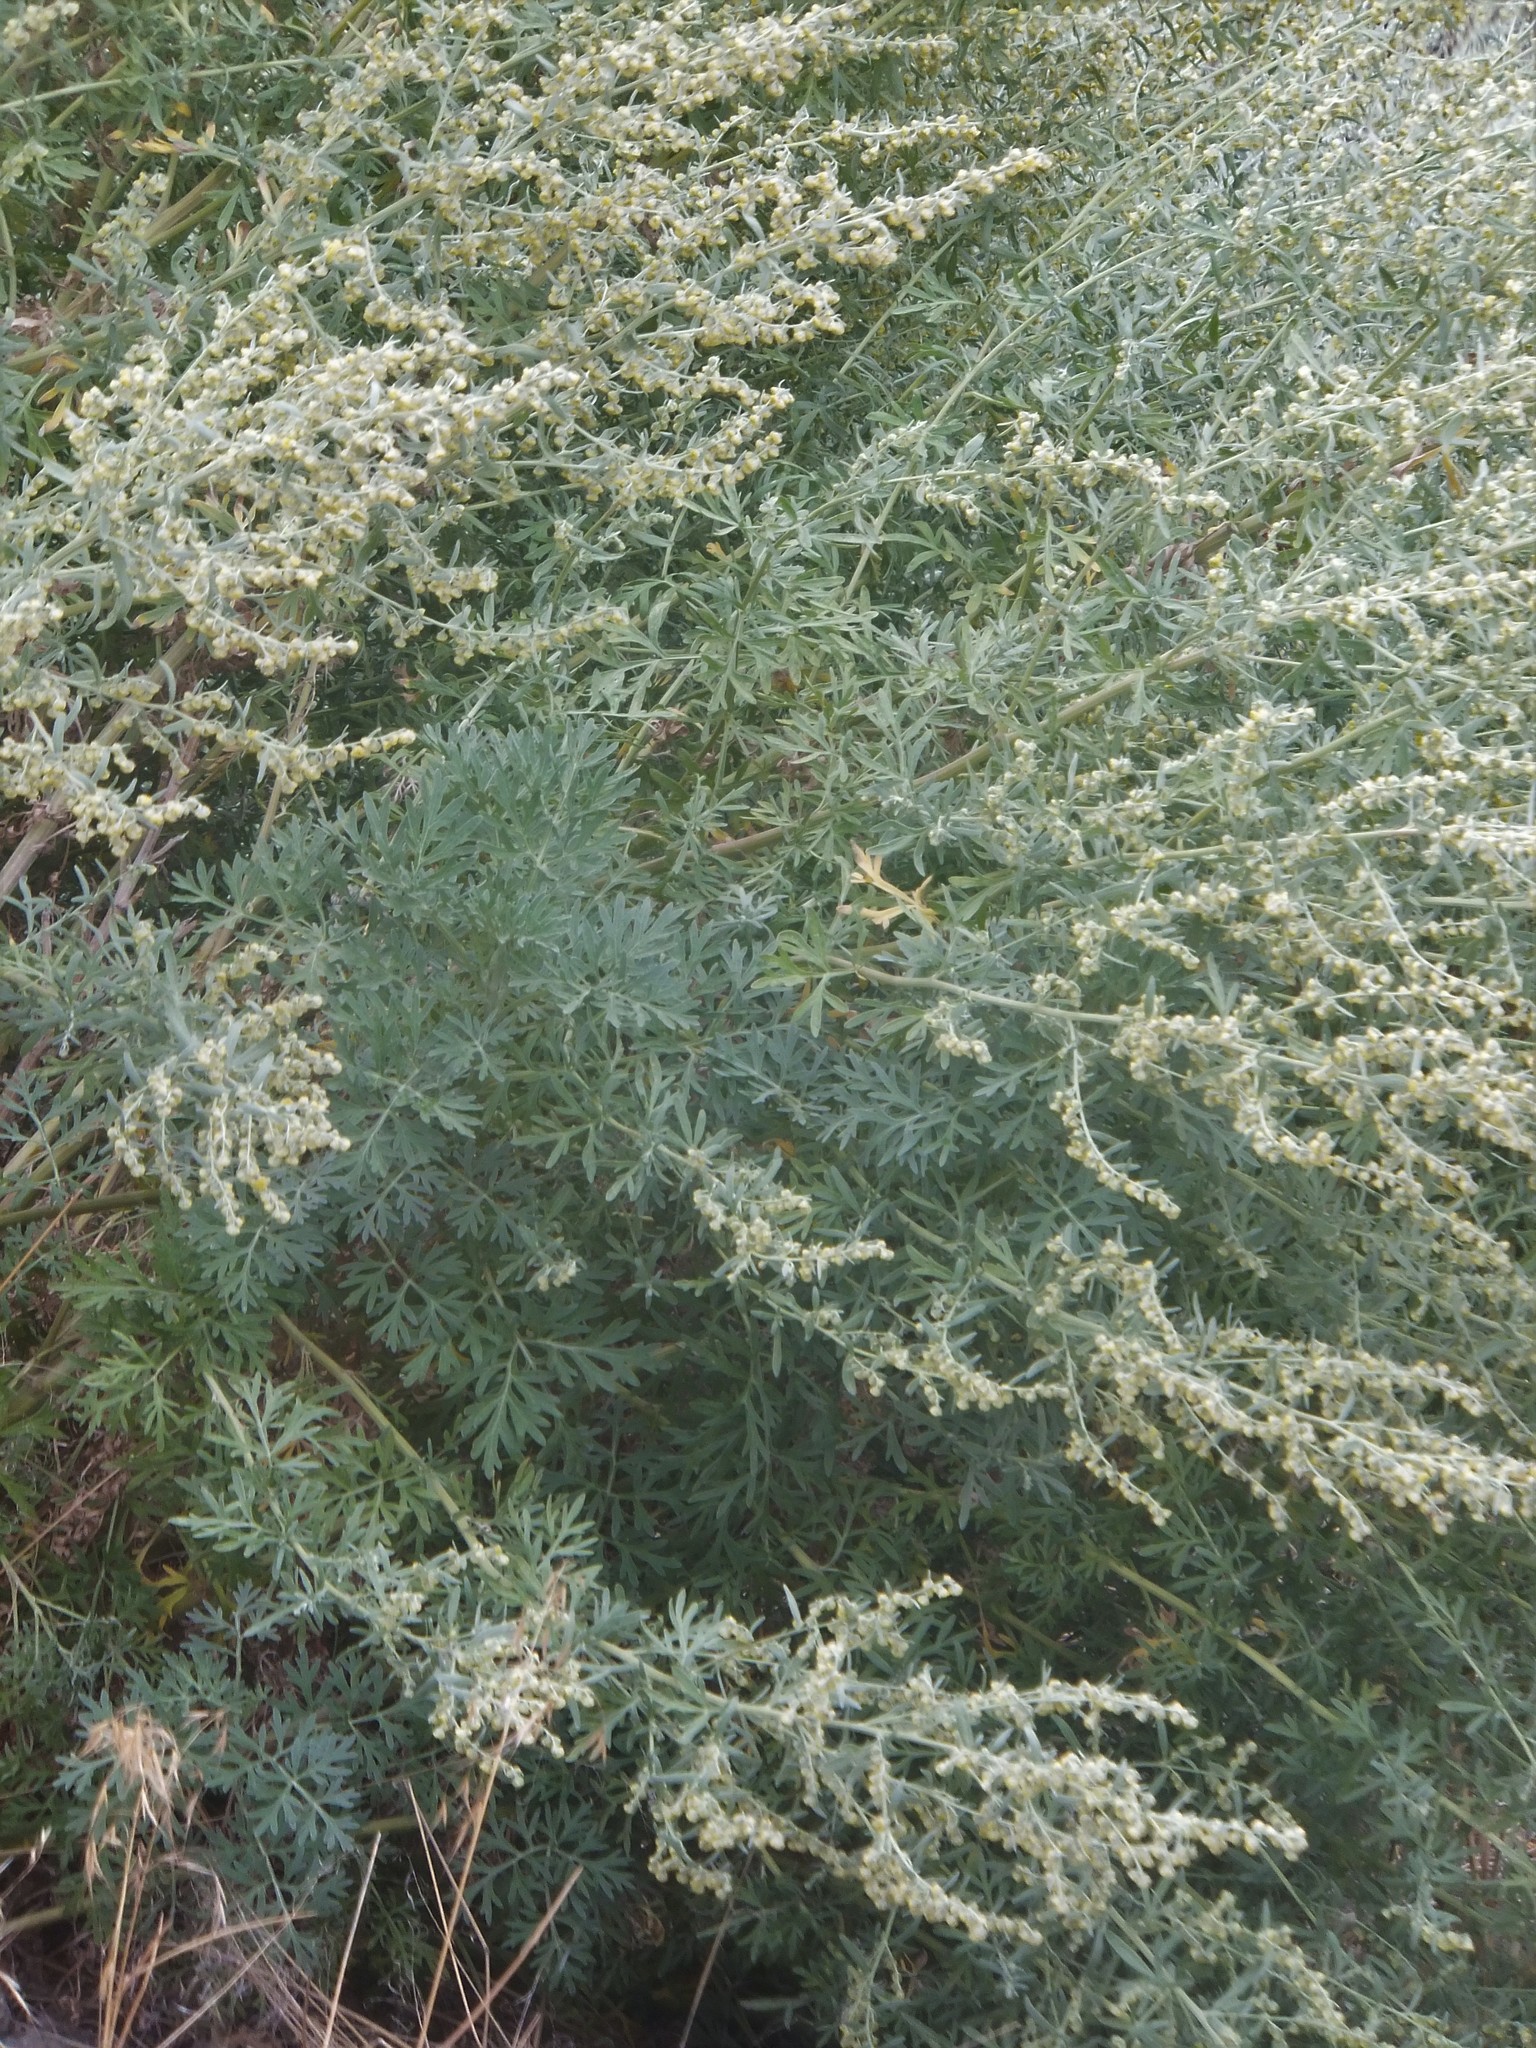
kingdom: Plantae
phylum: Tracheophyta
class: Magnoliopsida
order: Asterales
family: Asteraceae
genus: Artemisia
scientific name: Artemisia absinthium
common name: Wormwood
